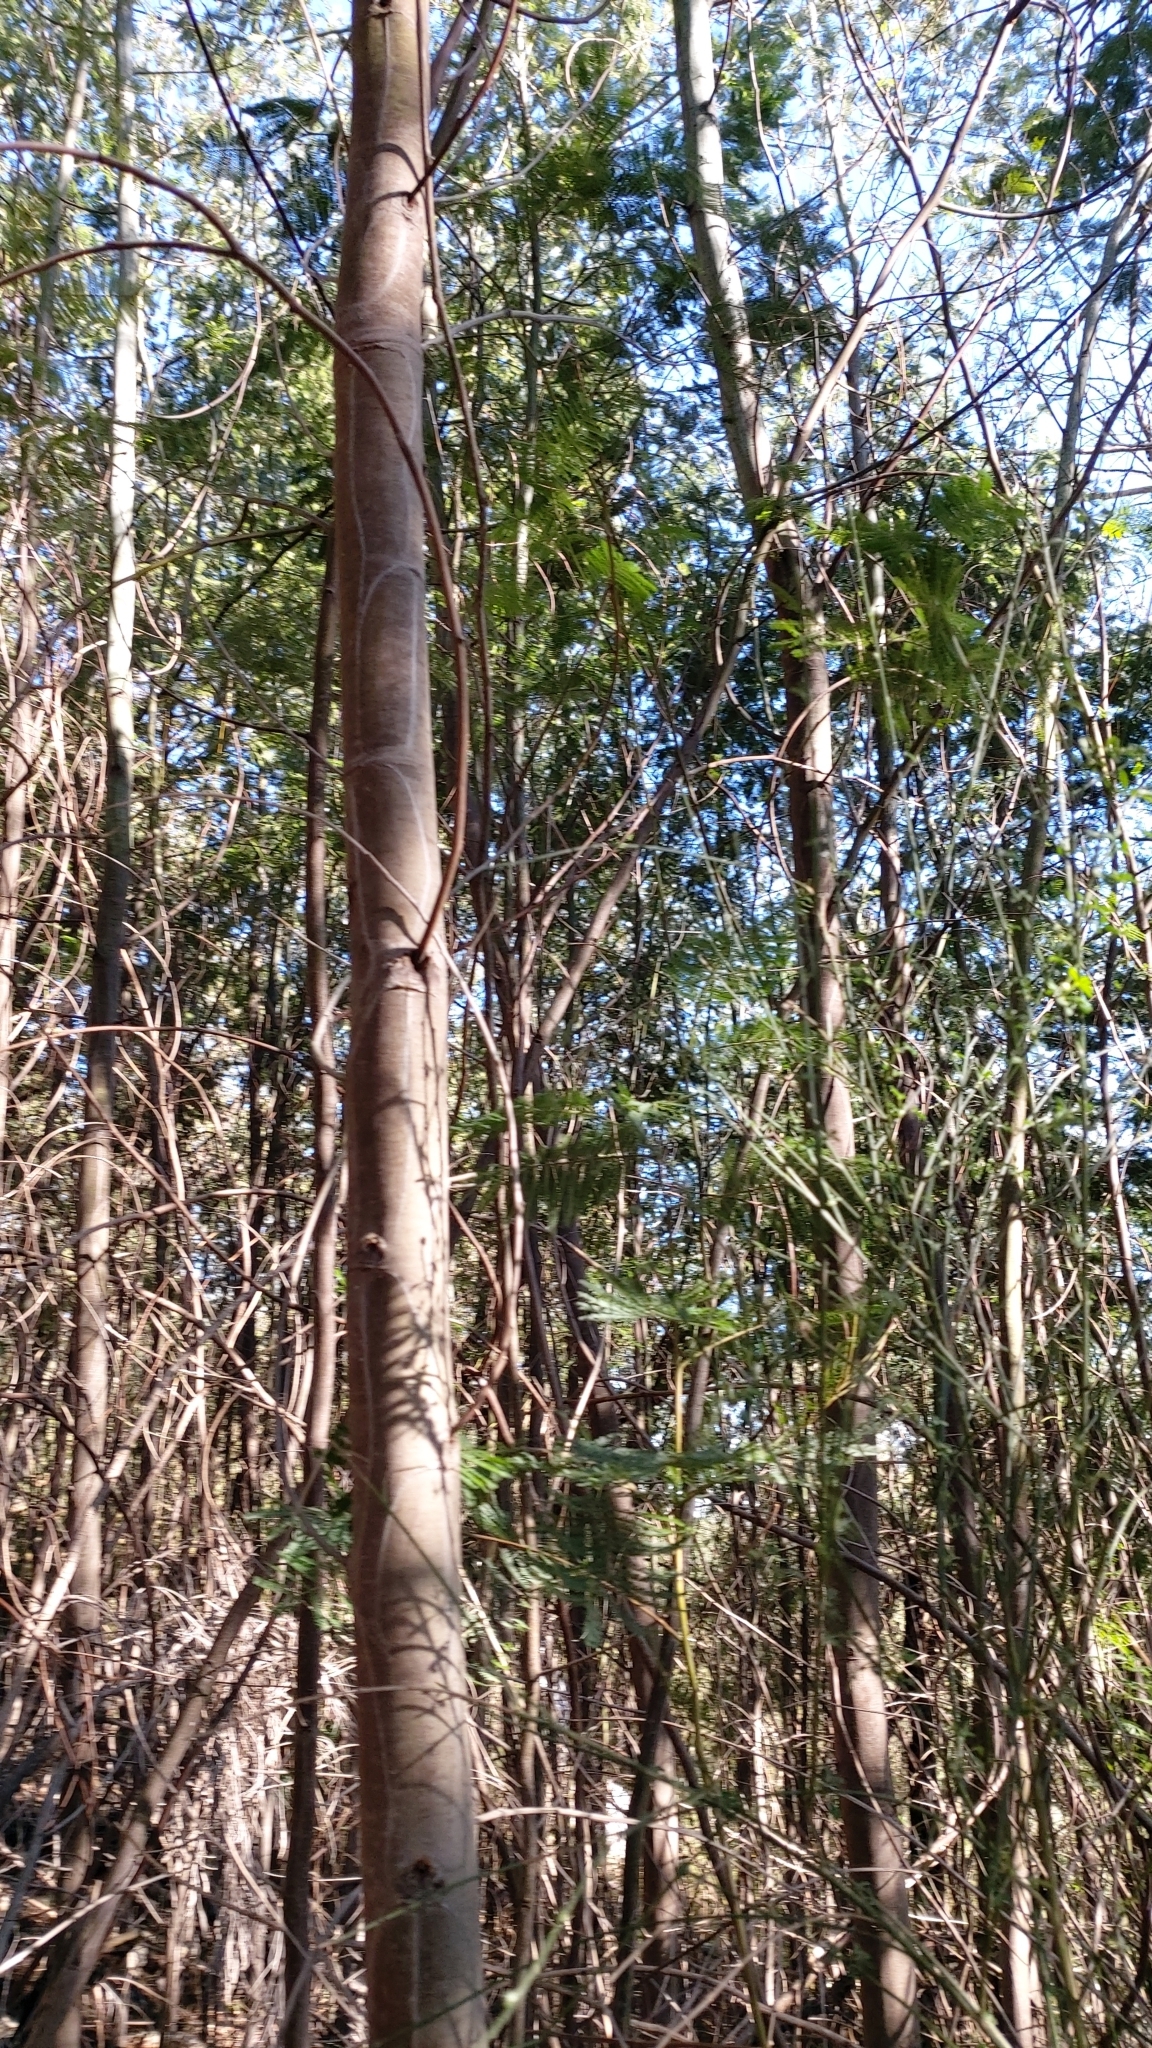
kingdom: Plantae
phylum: Tracheophyta
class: Magnoliopsida
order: Fabales
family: Fabaceae
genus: Acacia
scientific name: Acacia dealbata
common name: Silver wattle
